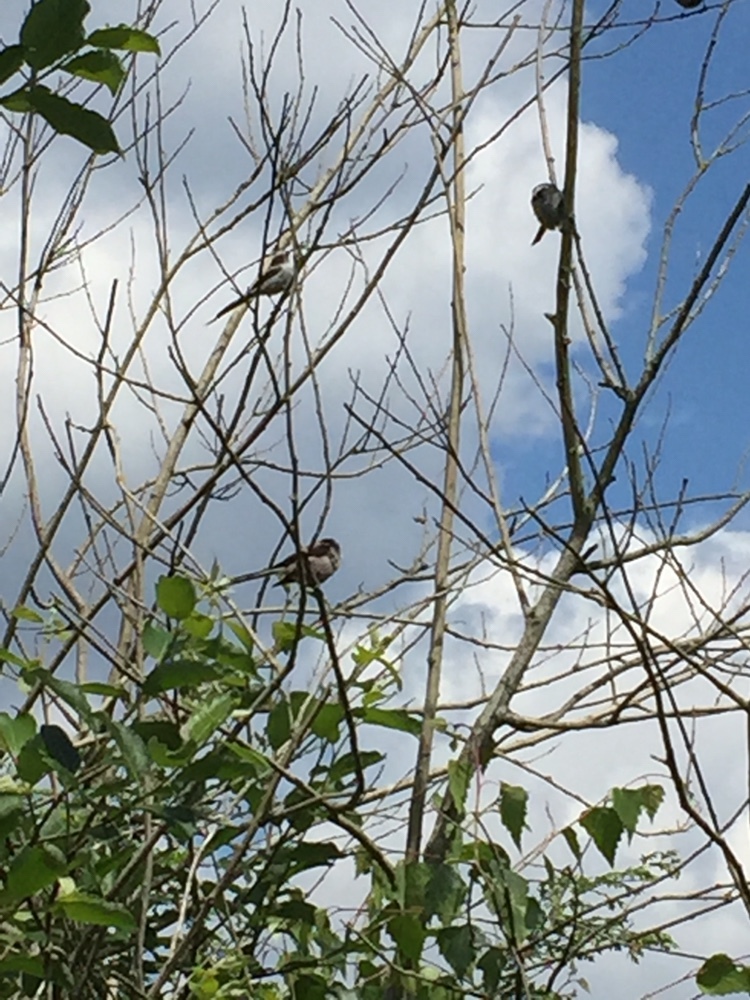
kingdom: Animalia
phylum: Chordata
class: Aves
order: Passeriformes
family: Aegithalidae
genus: Aegithalos
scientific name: Aegithalos caudatus
